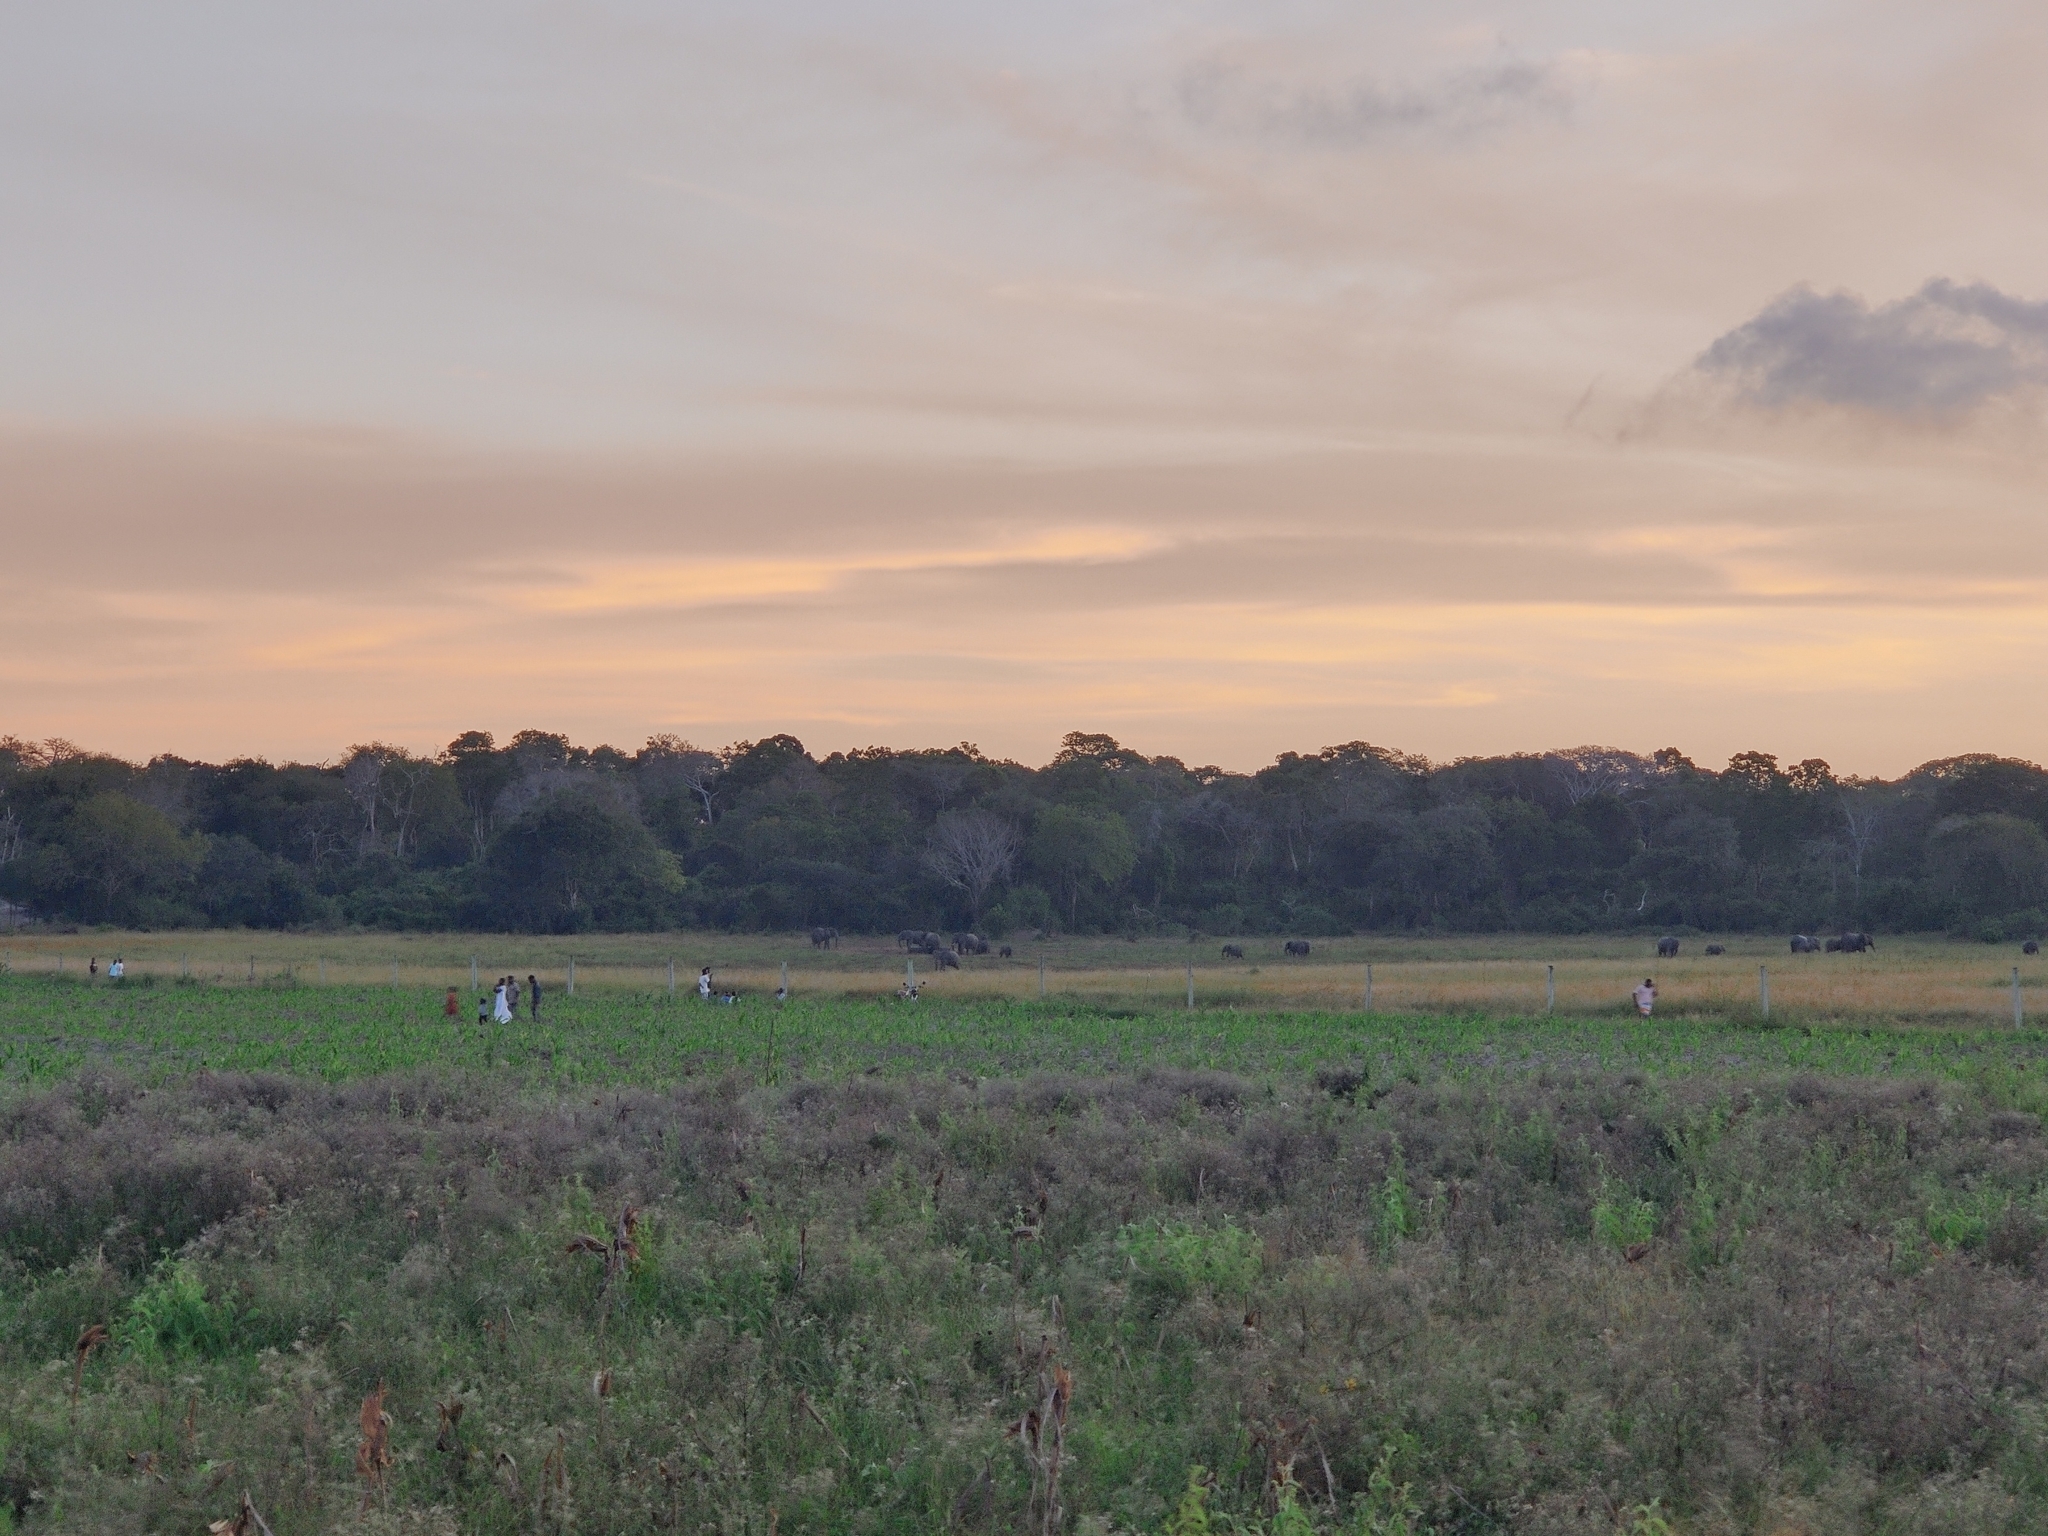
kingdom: Animalia
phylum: Chordata
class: Mammalia
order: Proboscidea
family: Elephantidae
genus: Loxodonta
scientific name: Loxodonta africana
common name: African elephant
